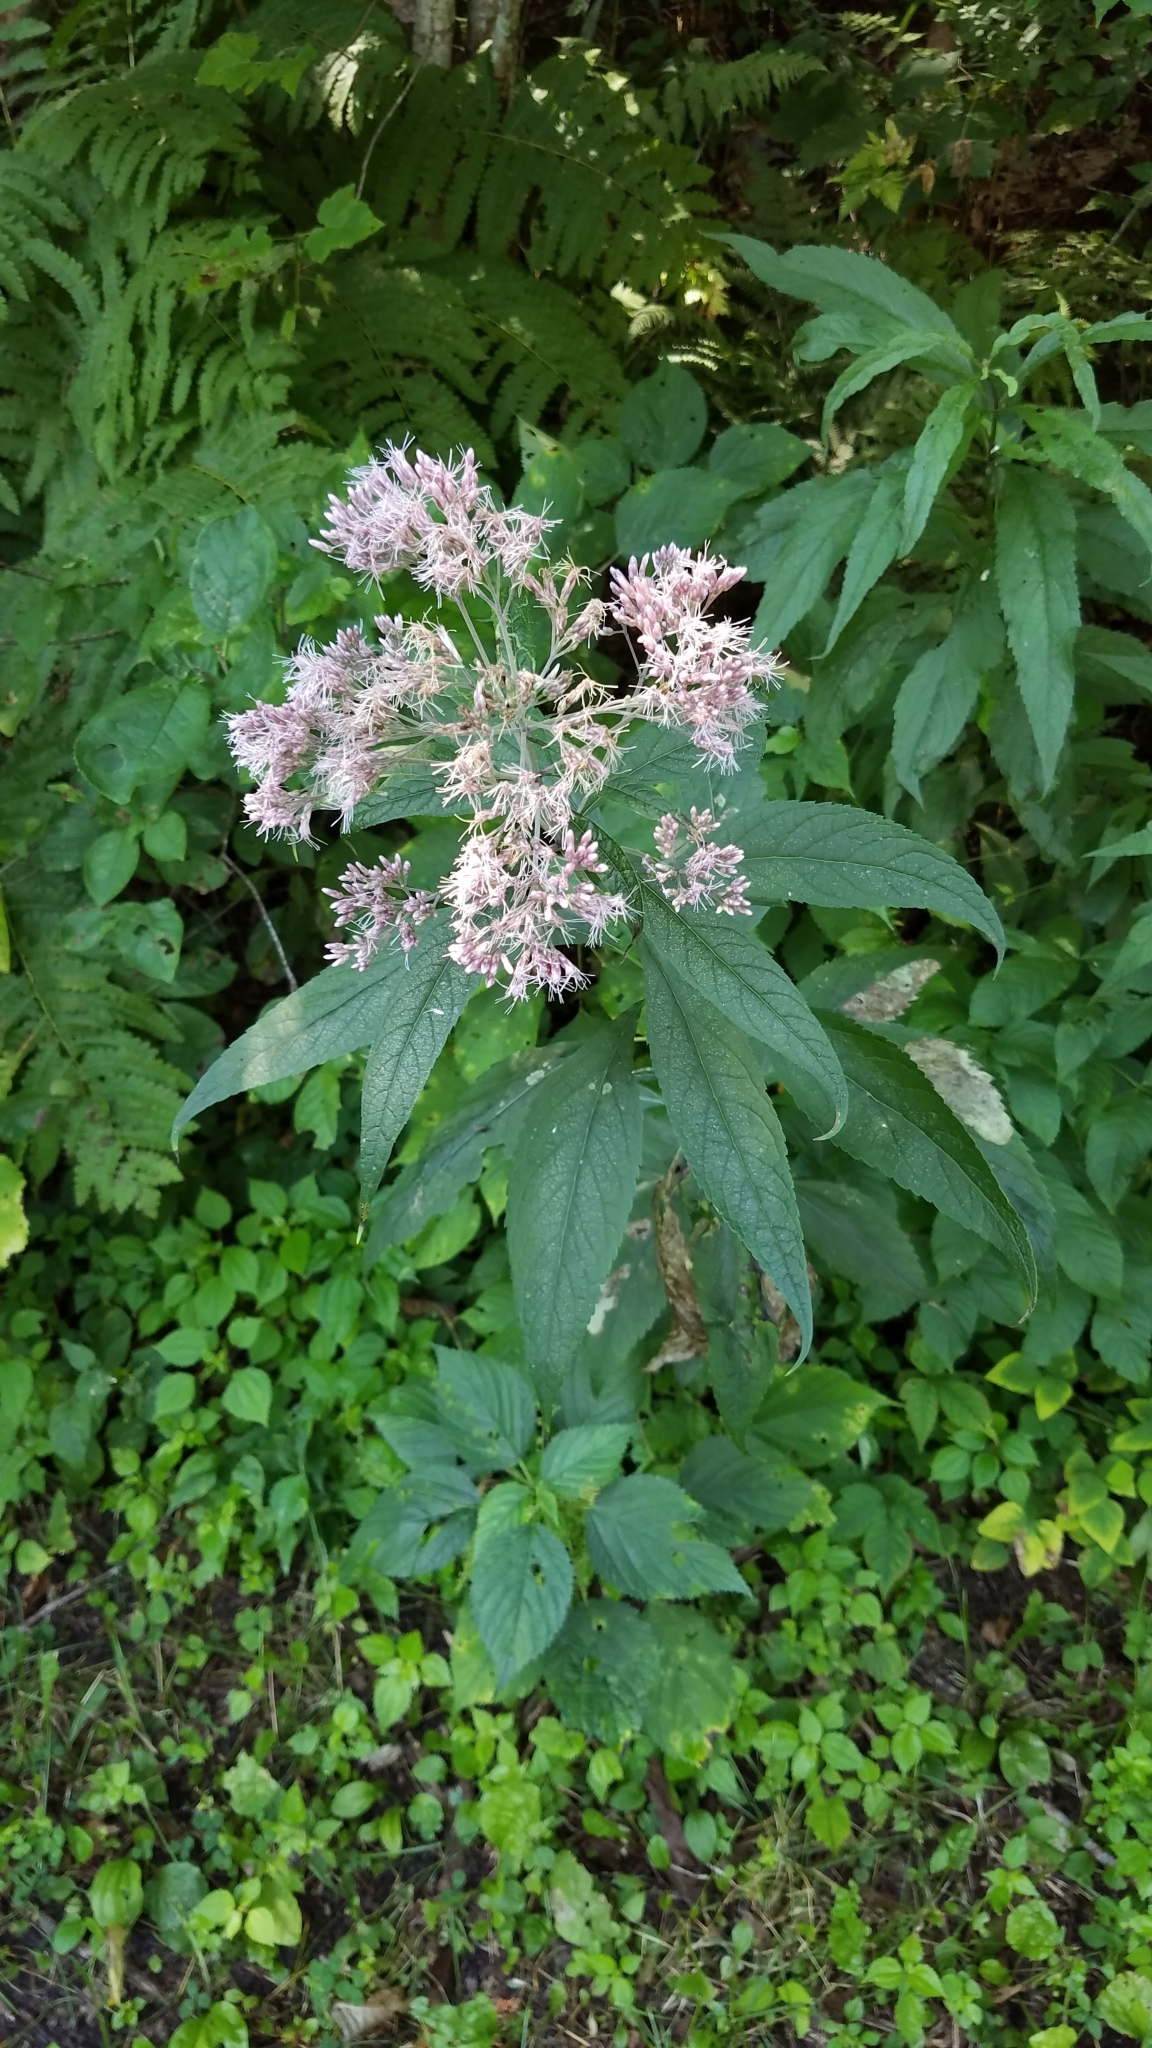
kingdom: Plantae
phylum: Tracheophyta
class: Magnoliopsida
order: Asterales
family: Asteraceae
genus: Eutrochium
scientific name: Eutrochium purpureum
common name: Gravelroot
